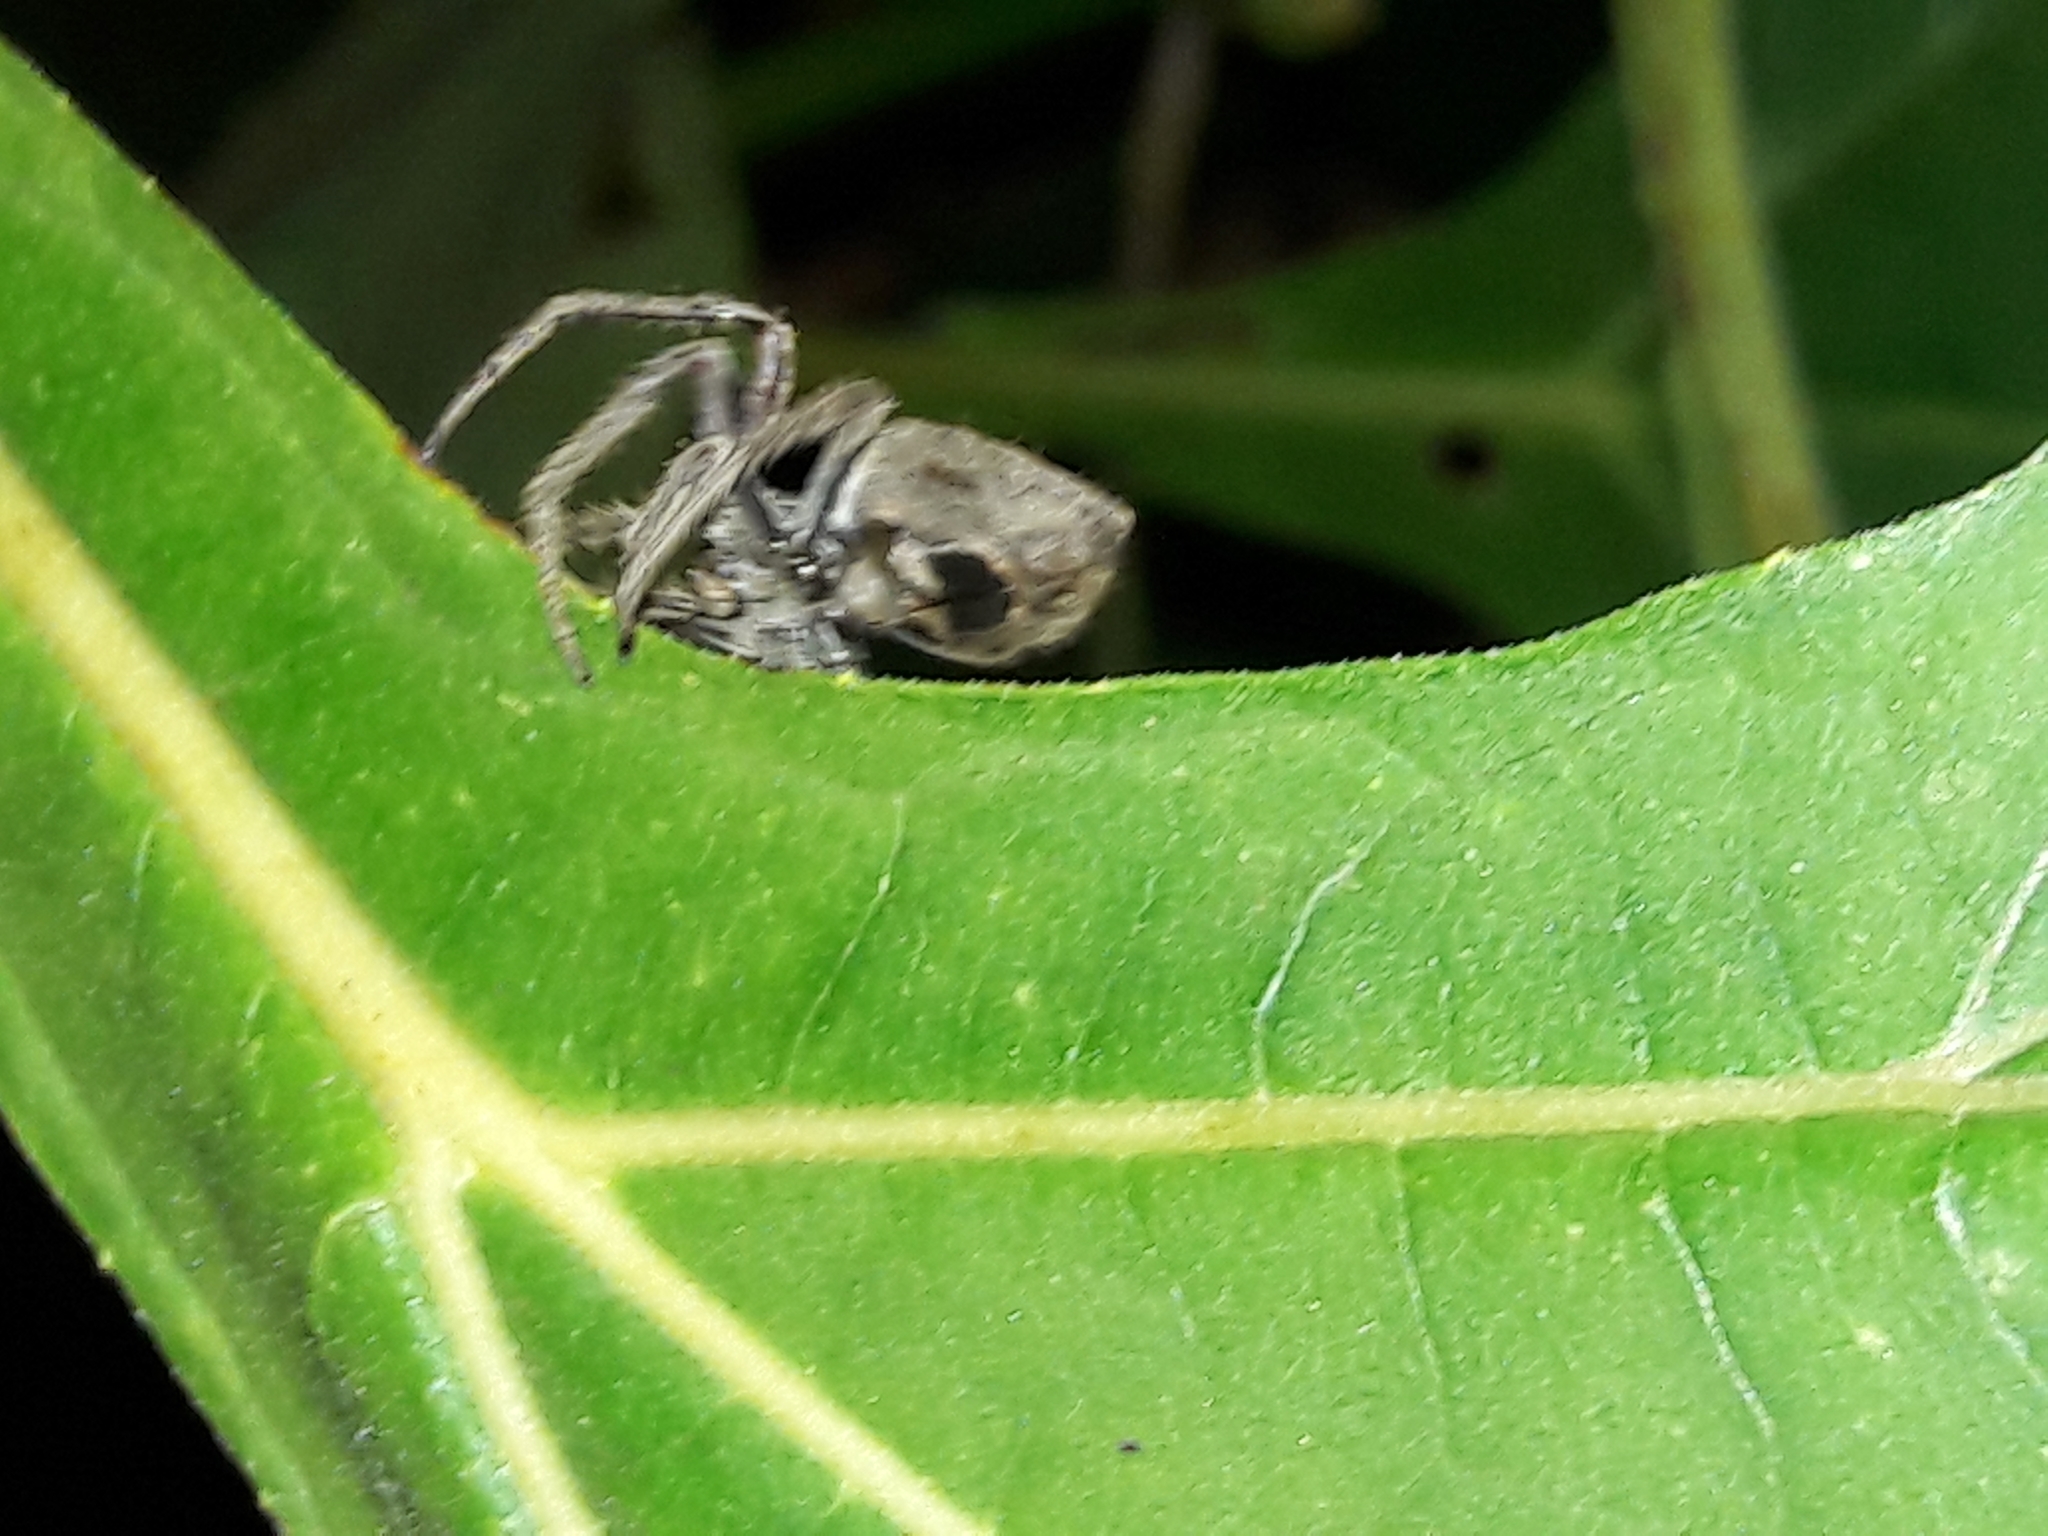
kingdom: Animalia
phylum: Arthropoda
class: Arachnida
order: Araneae
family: Araneidae
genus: Eriophora
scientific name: Eriophora edax
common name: Orb weavers
